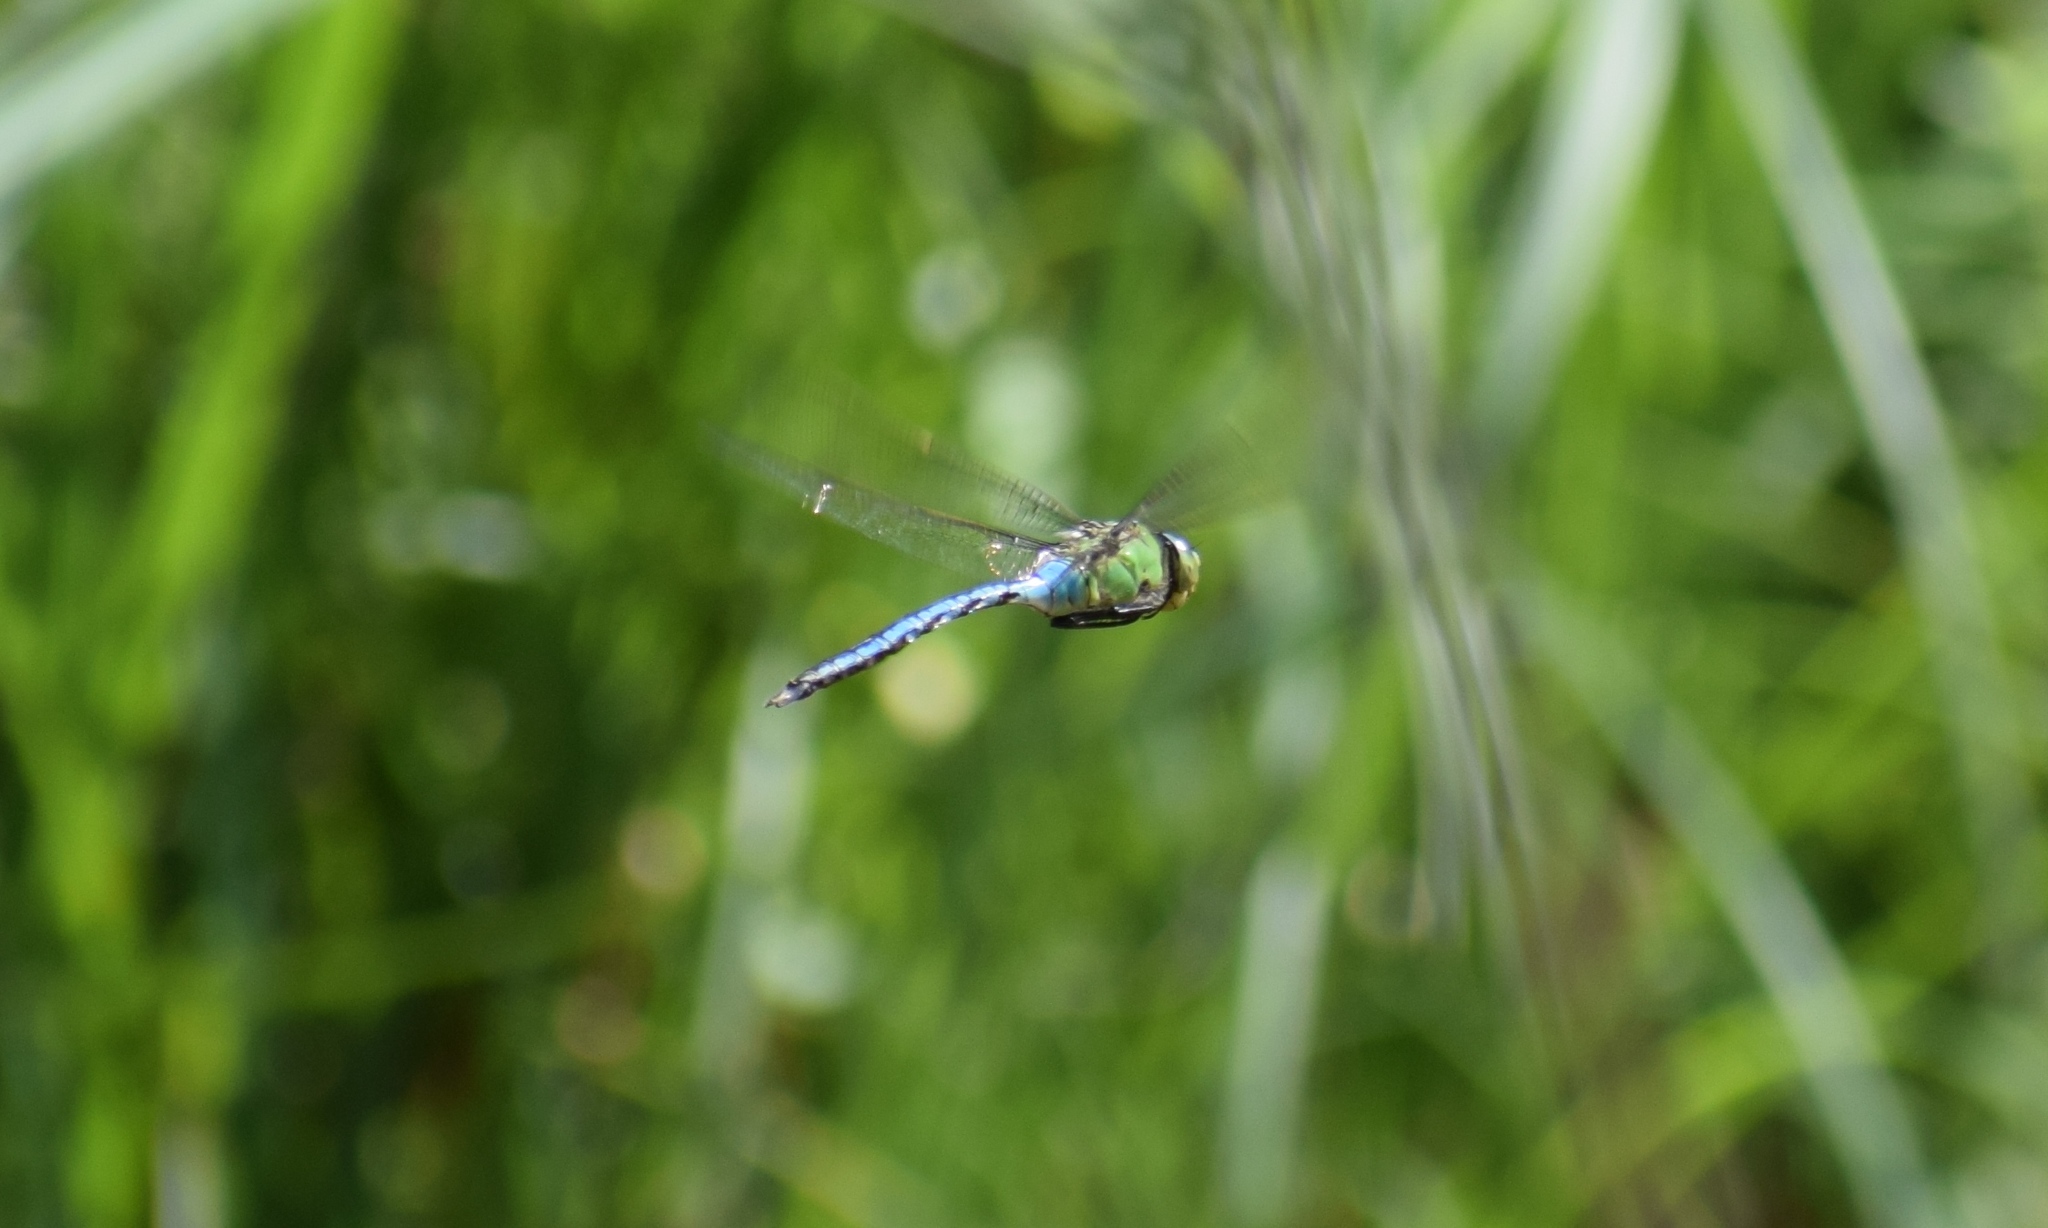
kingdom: Animalia
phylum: Arthropoda
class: Insecta
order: Odonata
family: Aeshnidae
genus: Anax
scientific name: Anax imperator
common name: Emperor dragonfly
